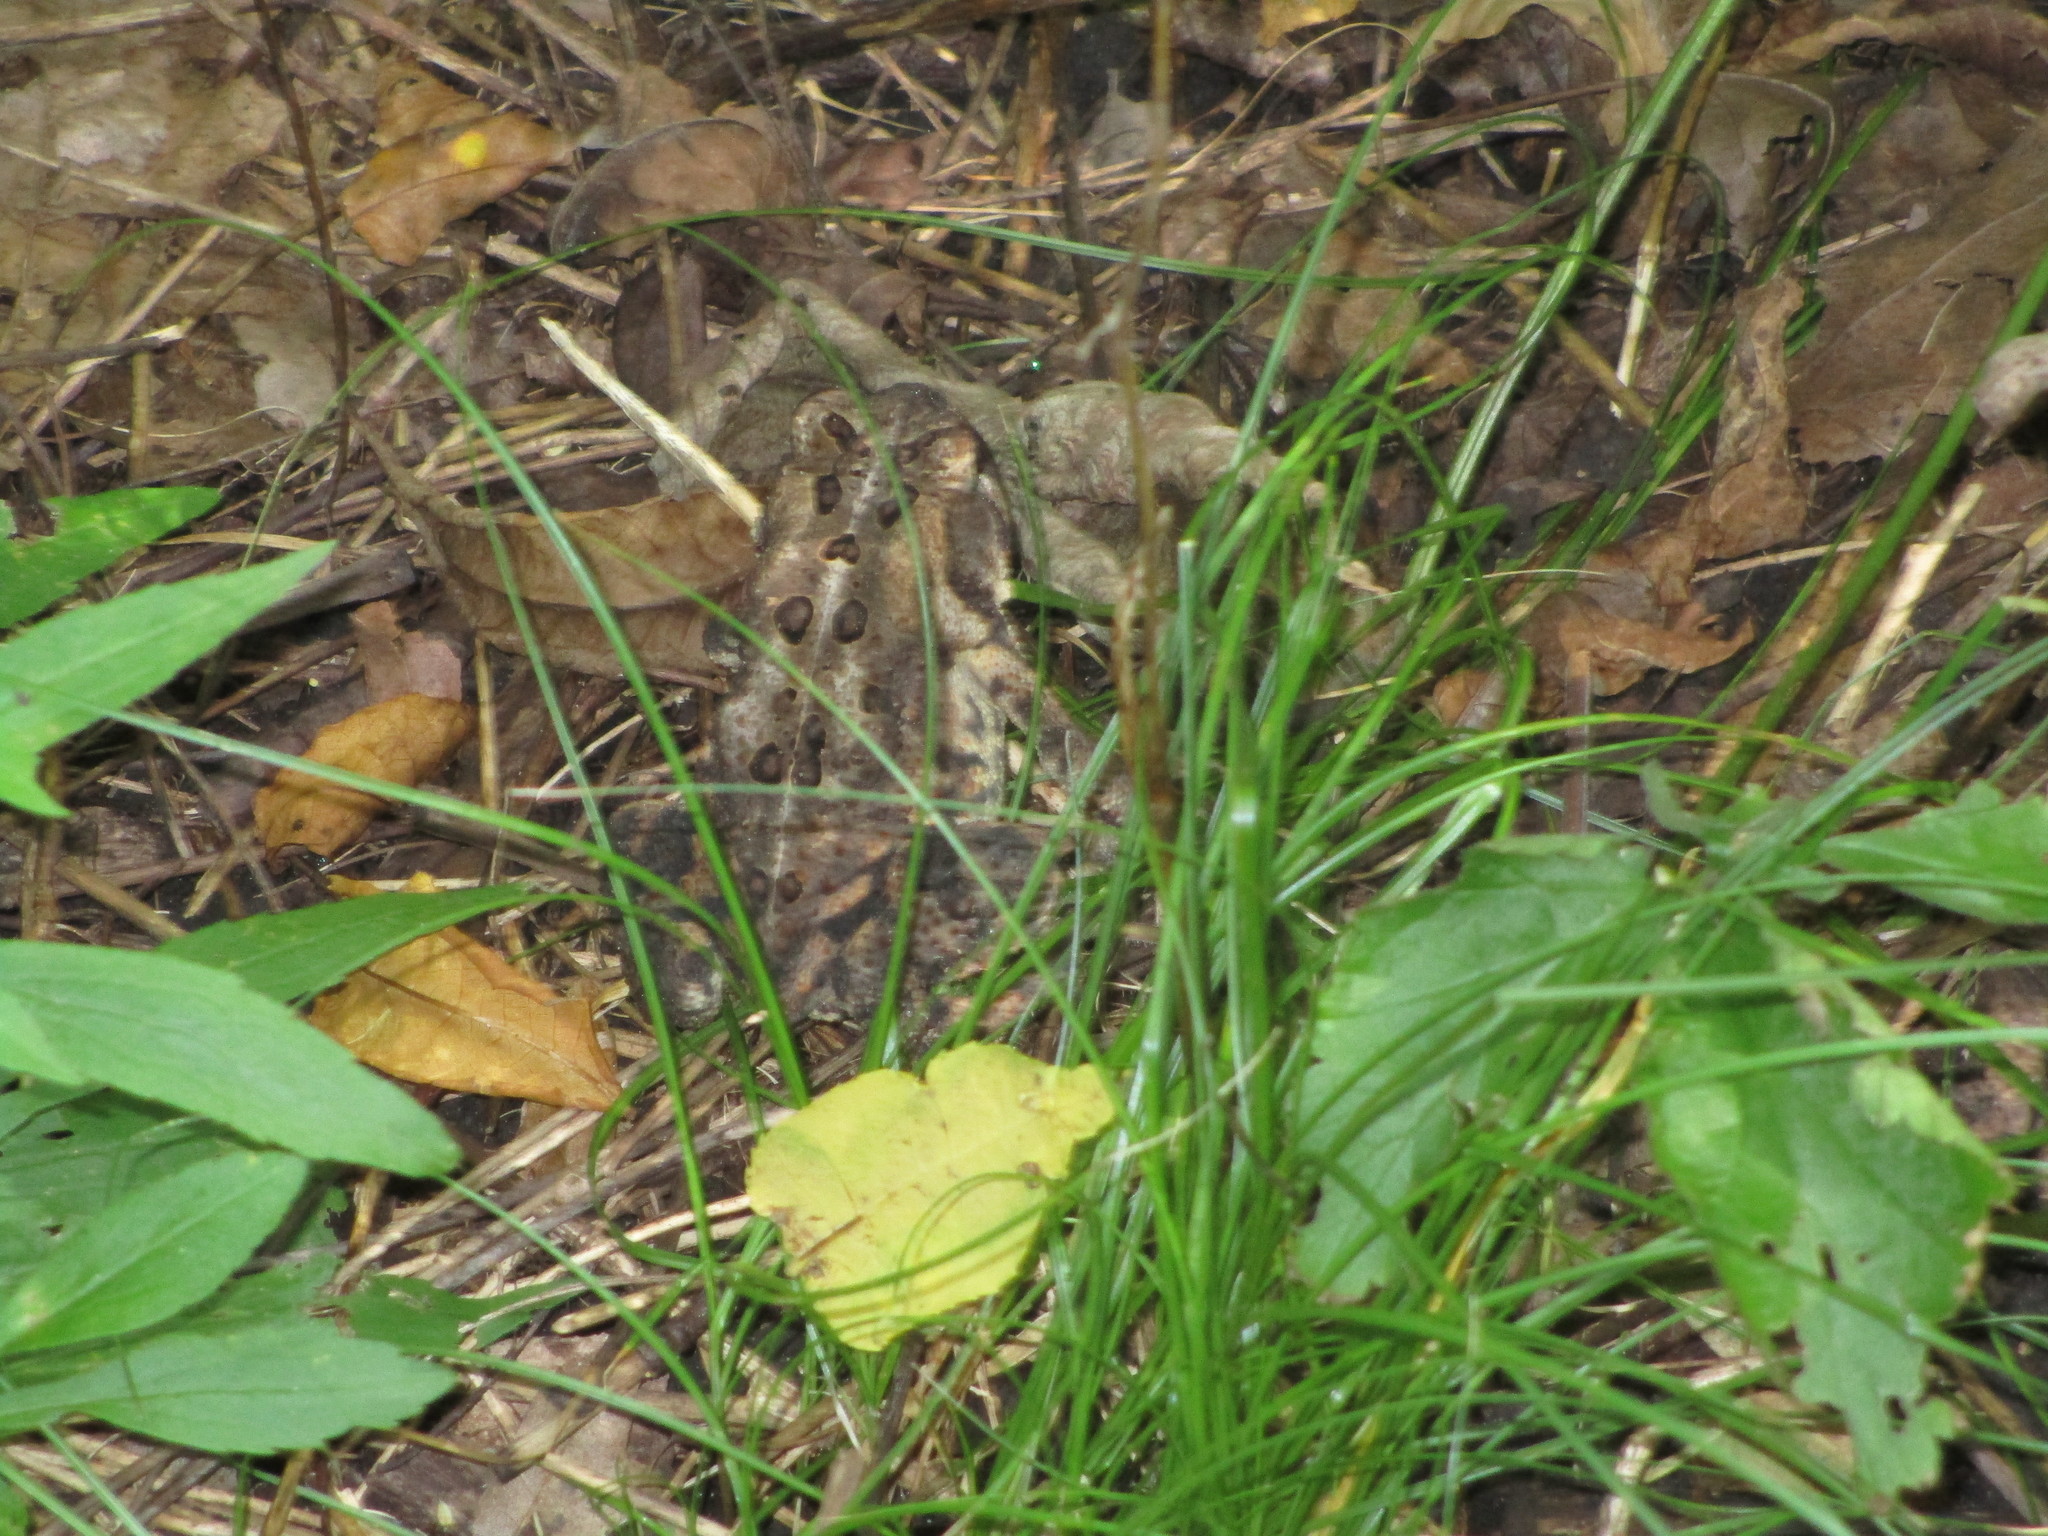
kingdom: Animalia
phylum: Chordata
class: Amphibia
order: Anura
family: Bufonidae
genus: Anaxyrus
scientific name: Anaxyrus americanus
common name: American toad
